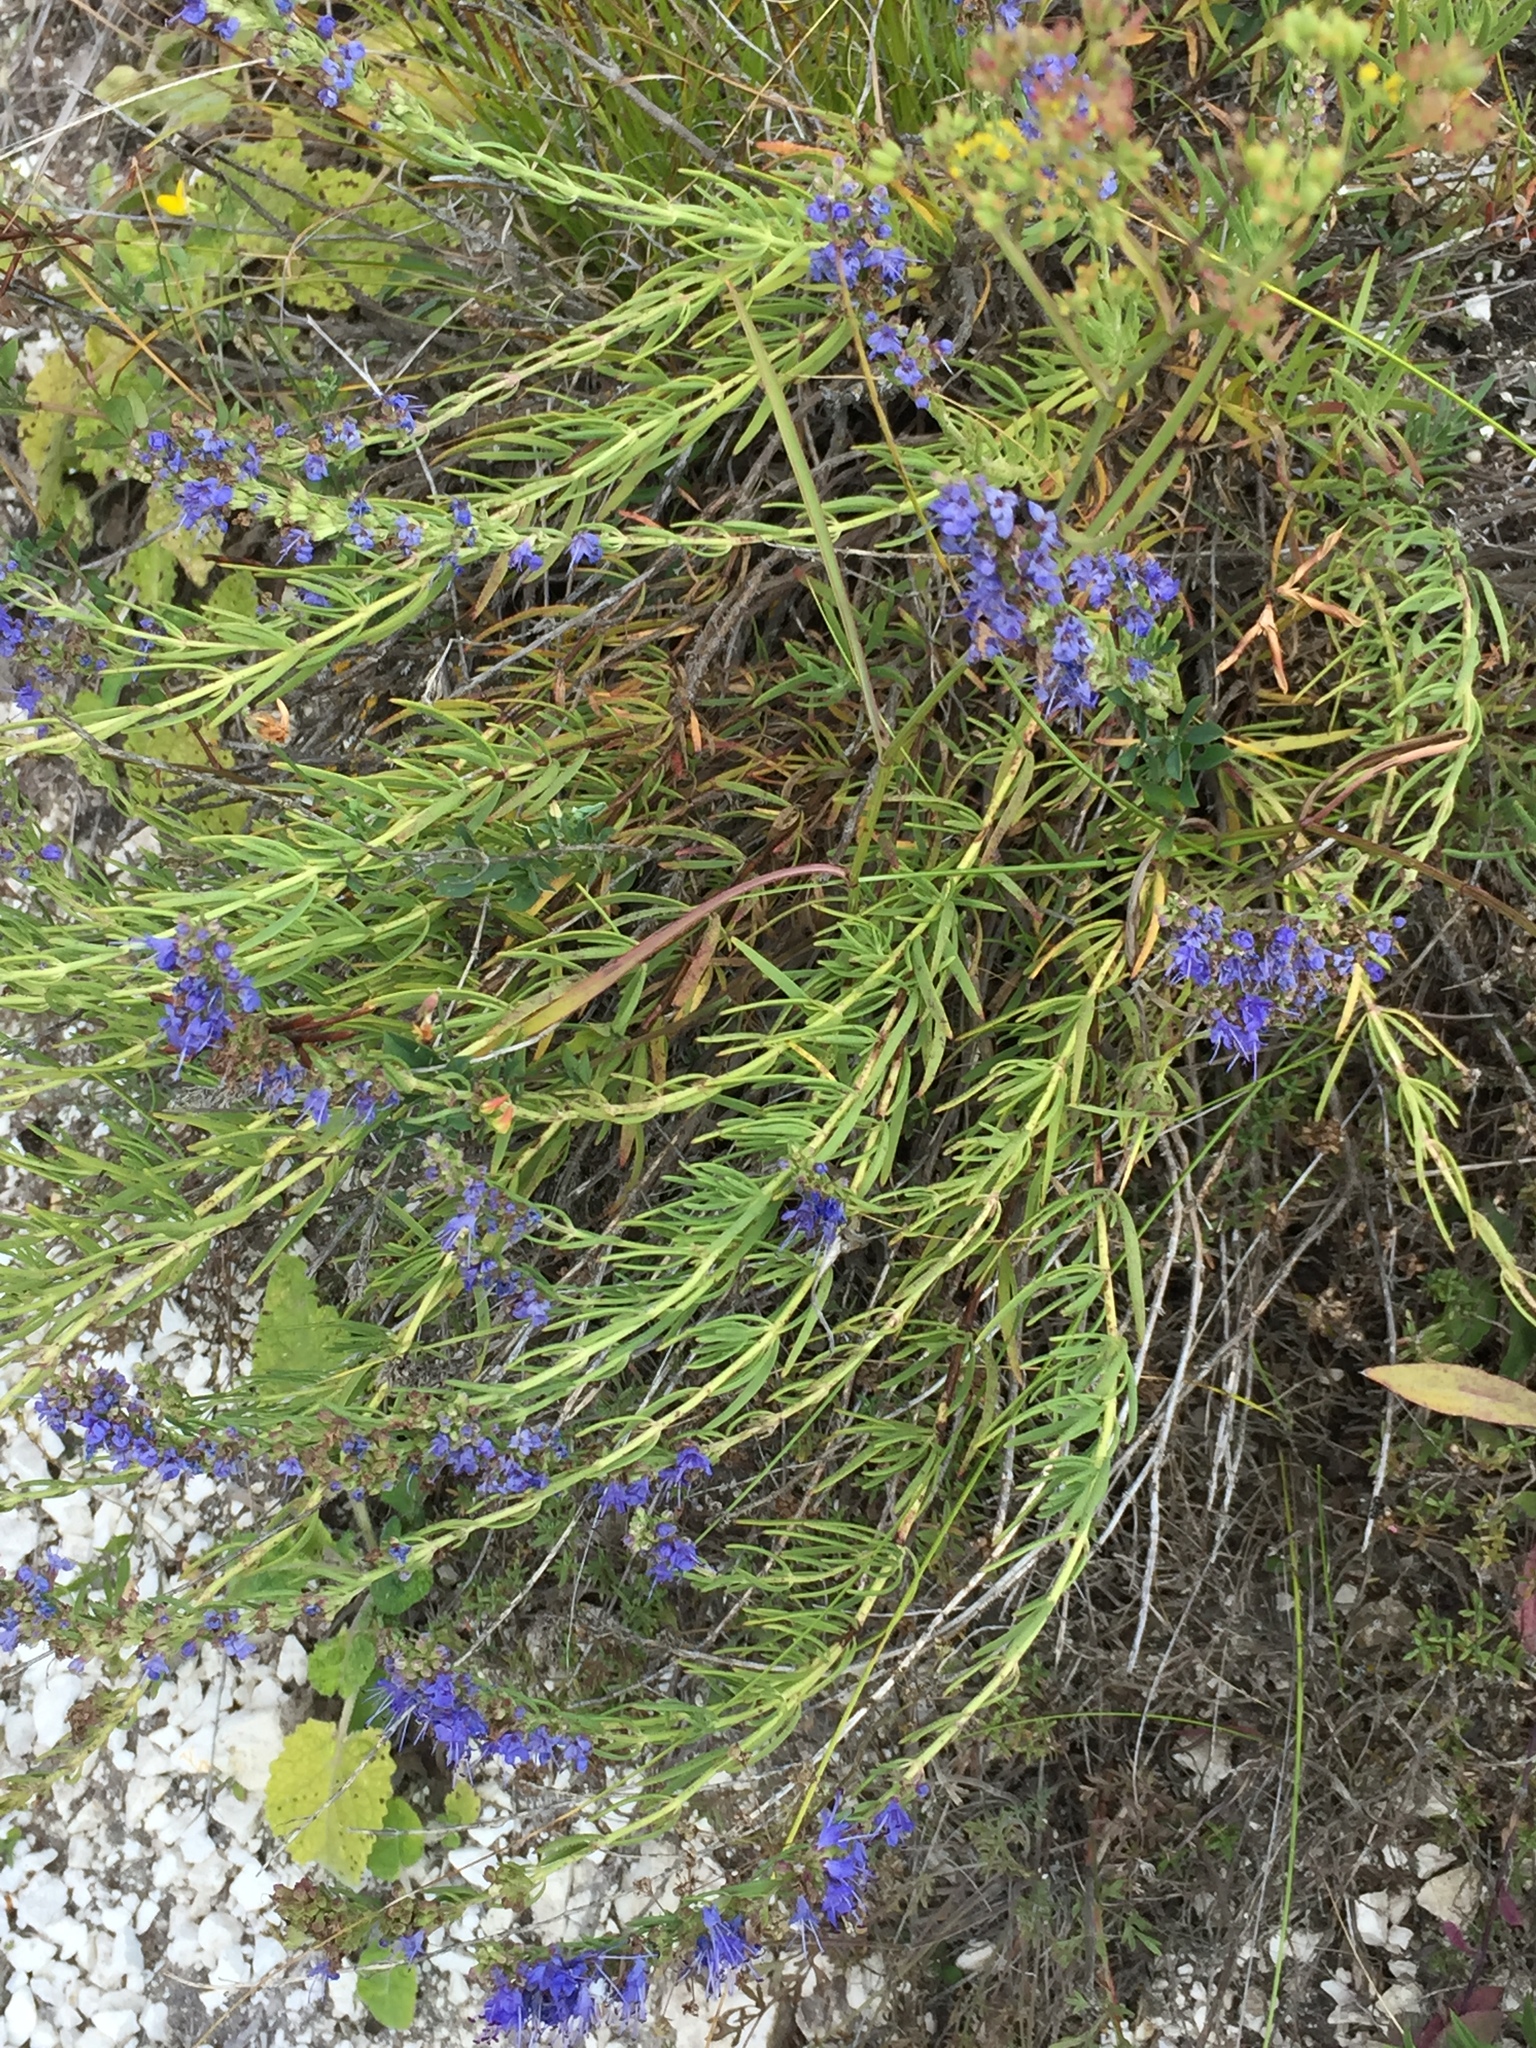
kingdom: Plantae
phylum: Tracheophyta
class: Magnoliopsida
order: Lamiales
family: Lamiaceae
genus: Hyssopus
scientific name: Hyssopus officinalis
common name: Hyssop
